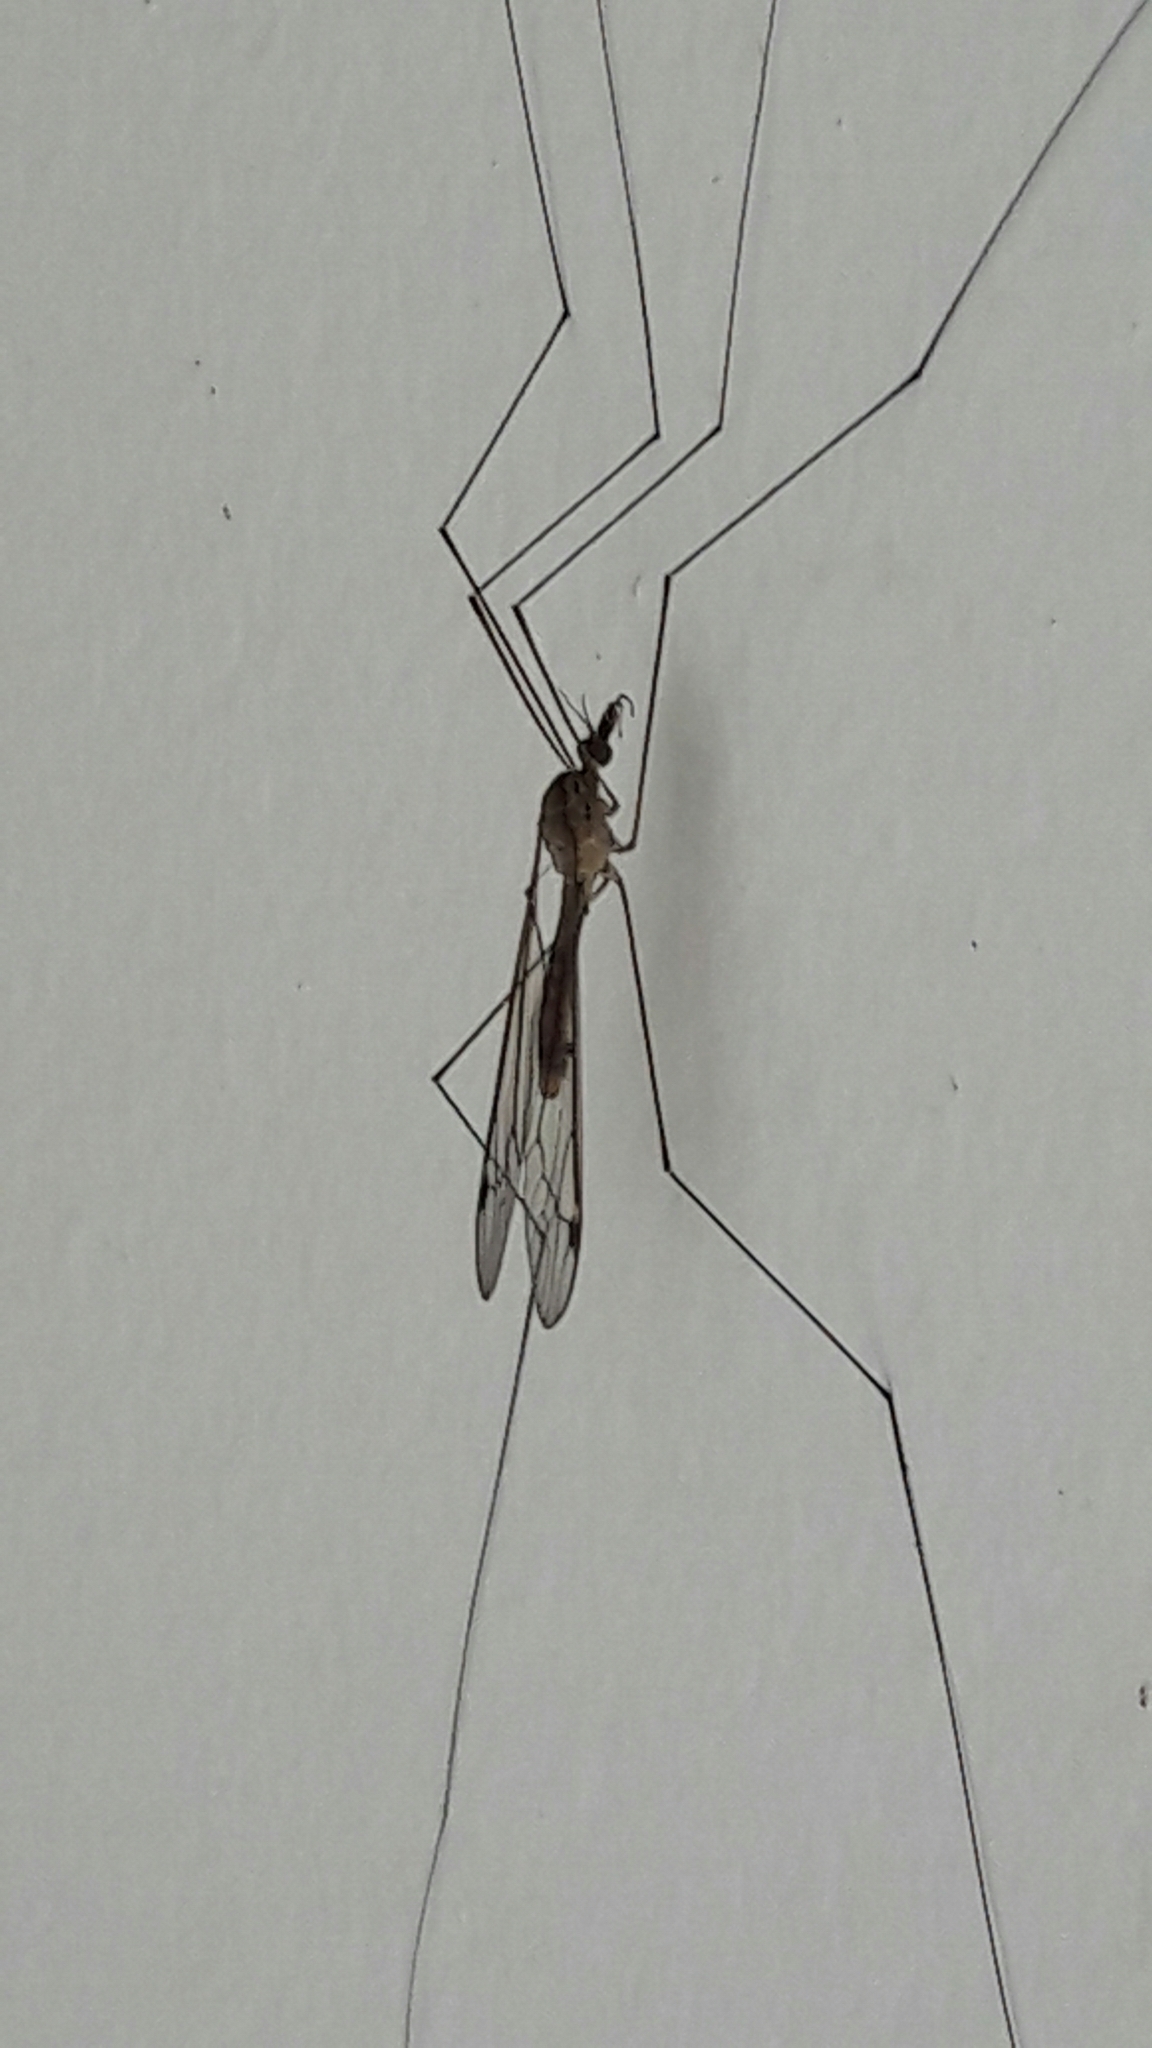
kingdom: Animalia
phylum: Arthropoda
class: Insecta
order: Diptera
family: Tipulidae
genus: Maekistocera
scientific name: Maekistocera longipennis
